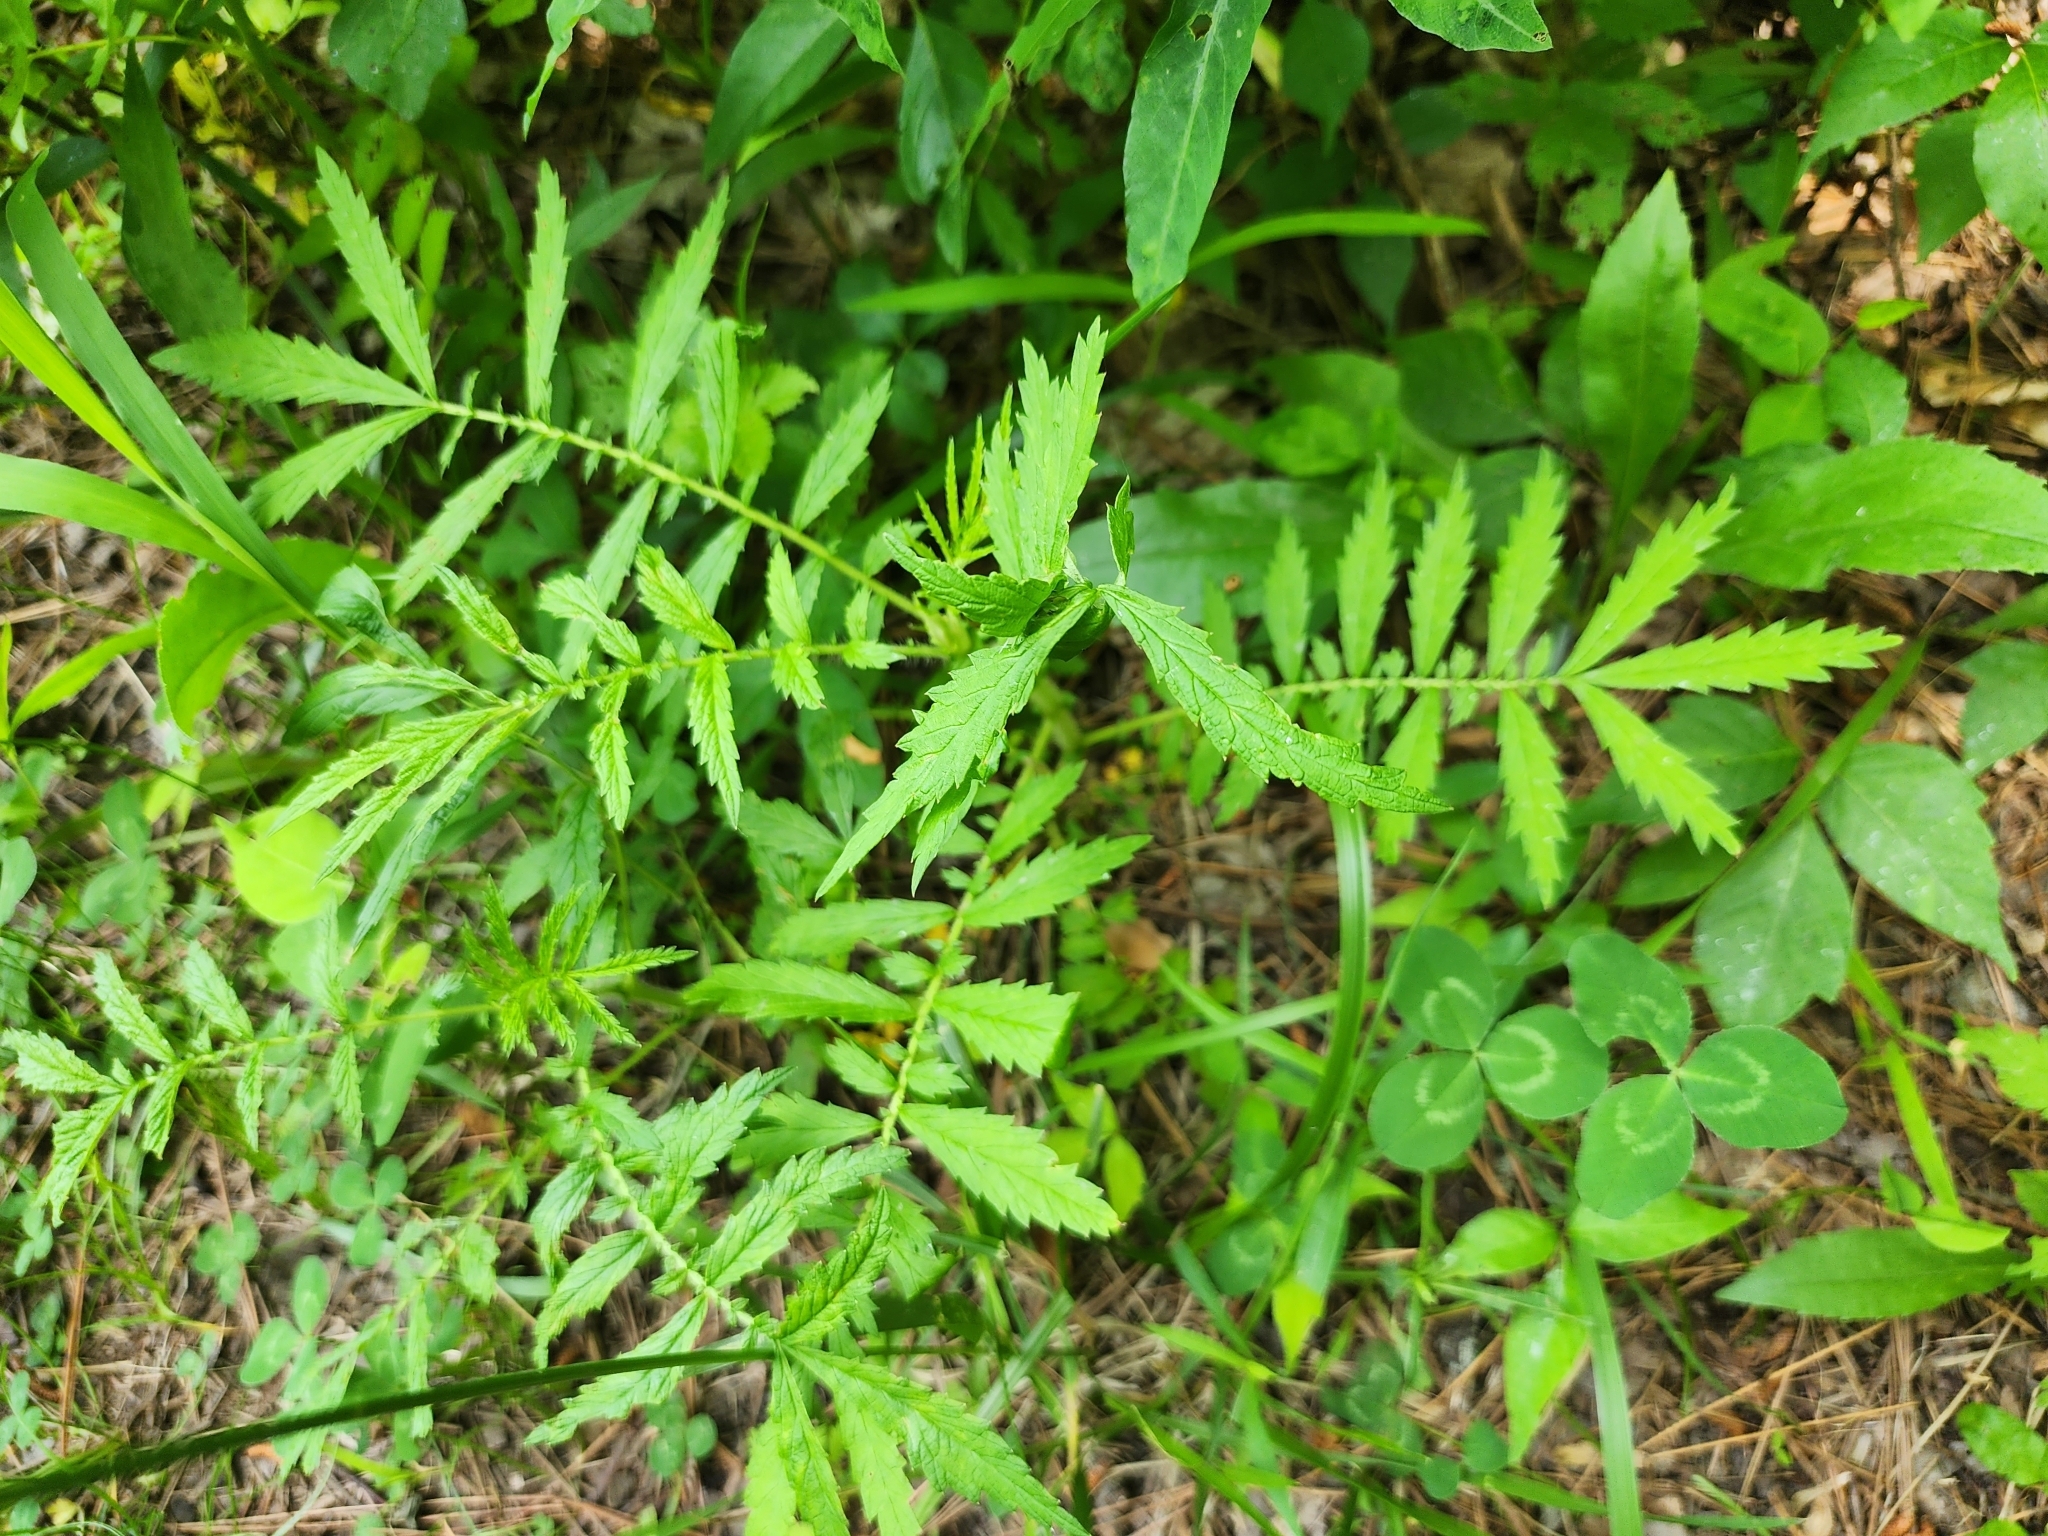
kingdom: Plantae
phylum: Tracheophyta
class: Magnoliopsida
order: Rosales
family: Rosaceae
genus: Agrimonia
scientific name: Agrimonia parviflora
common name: Harvest-lice
